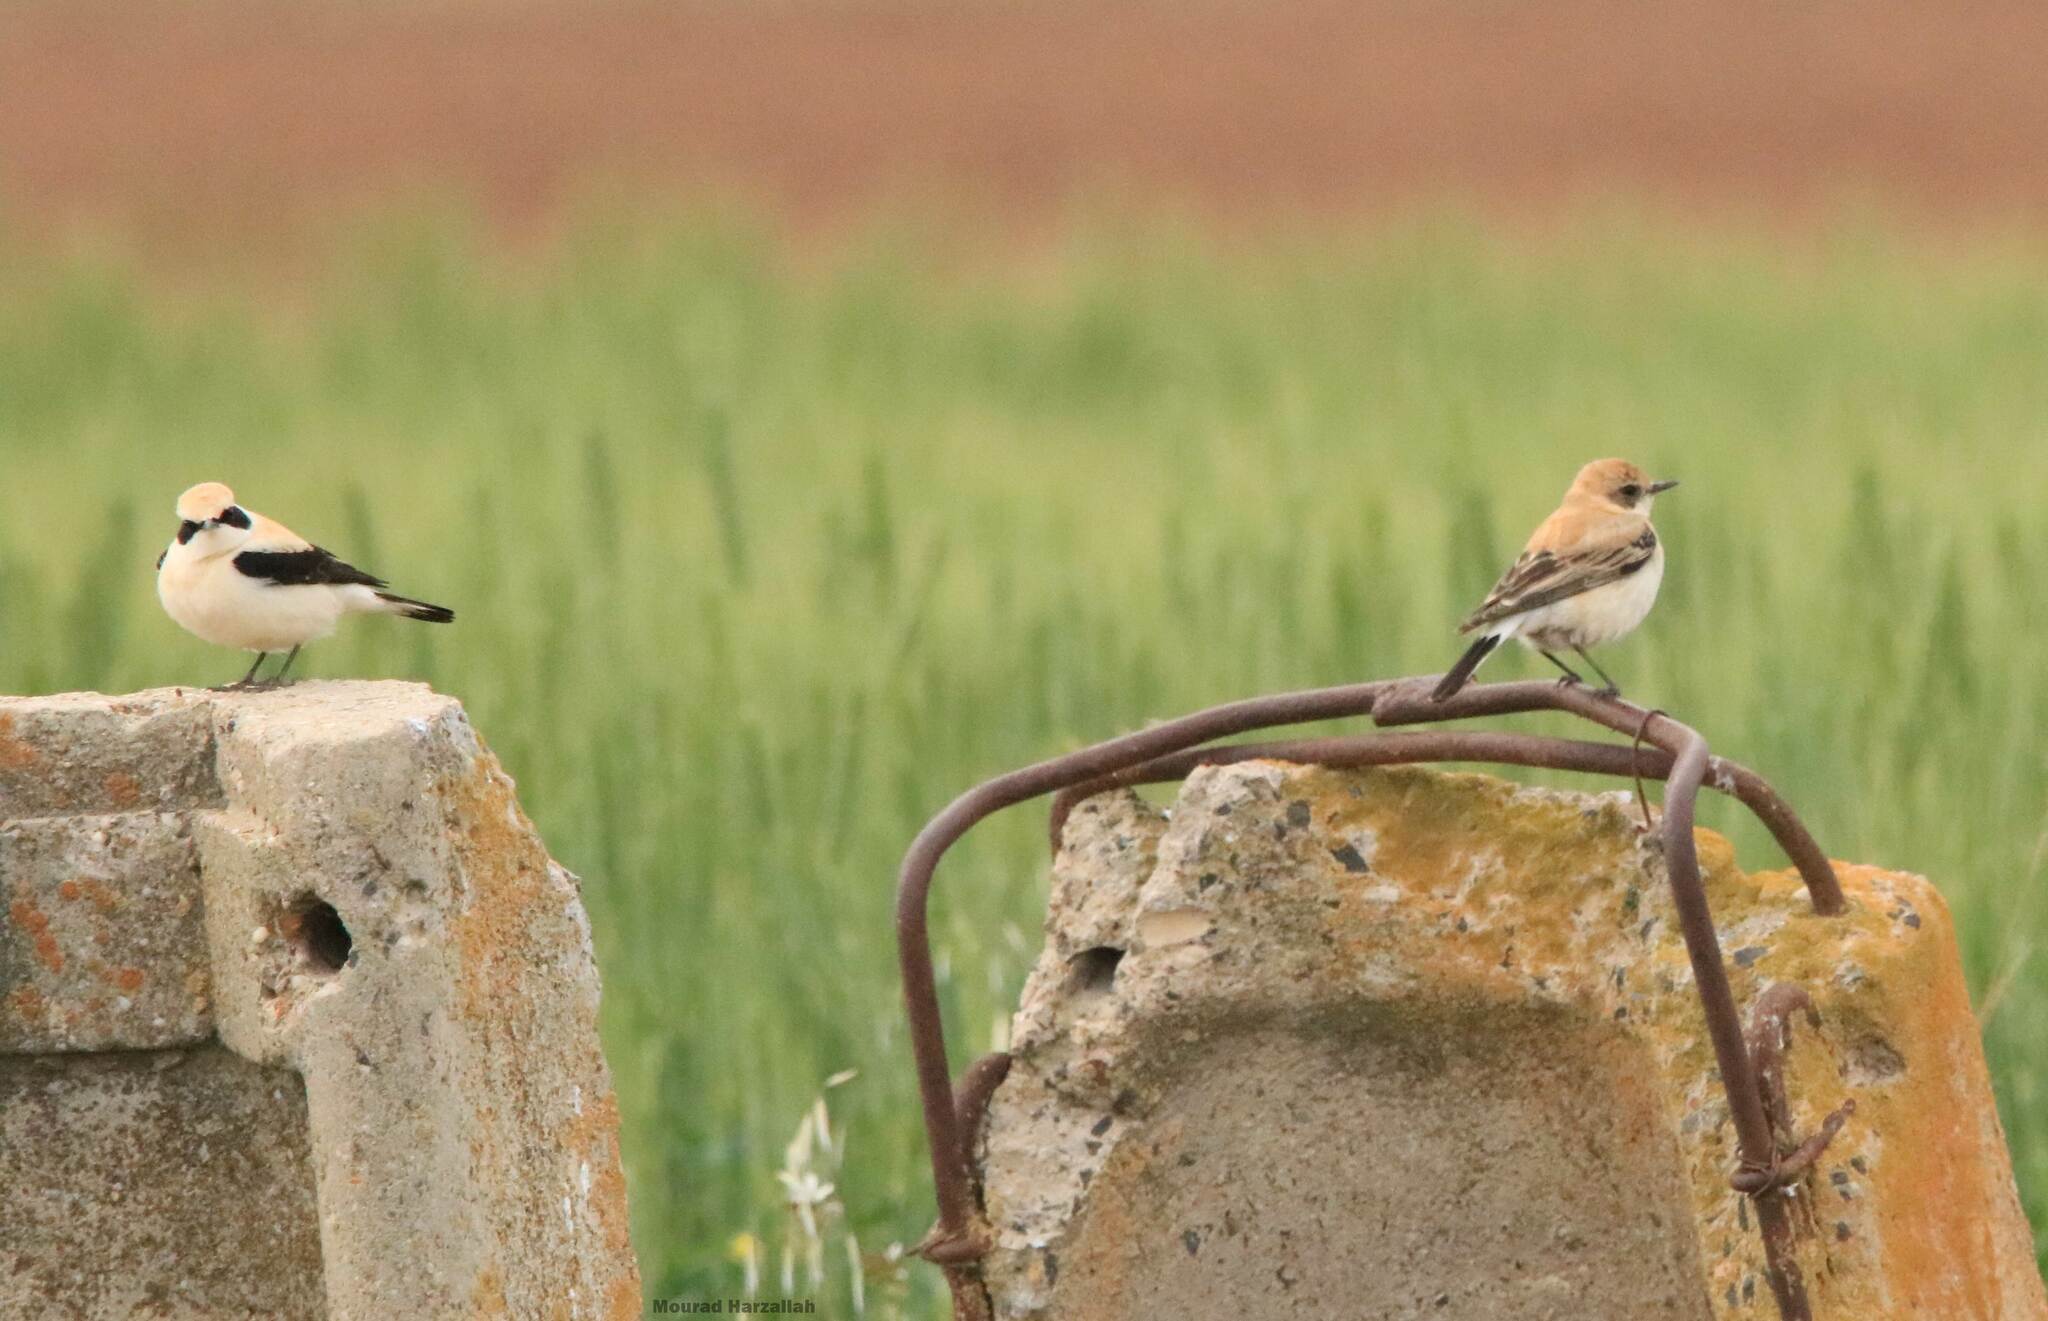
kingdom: Animalia
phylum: Chordata
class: Aves
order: Passeriformes
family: Muscicapidae
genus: Oenanthe
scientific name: Oenanthe hispanica
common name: Black-eared wheatear
